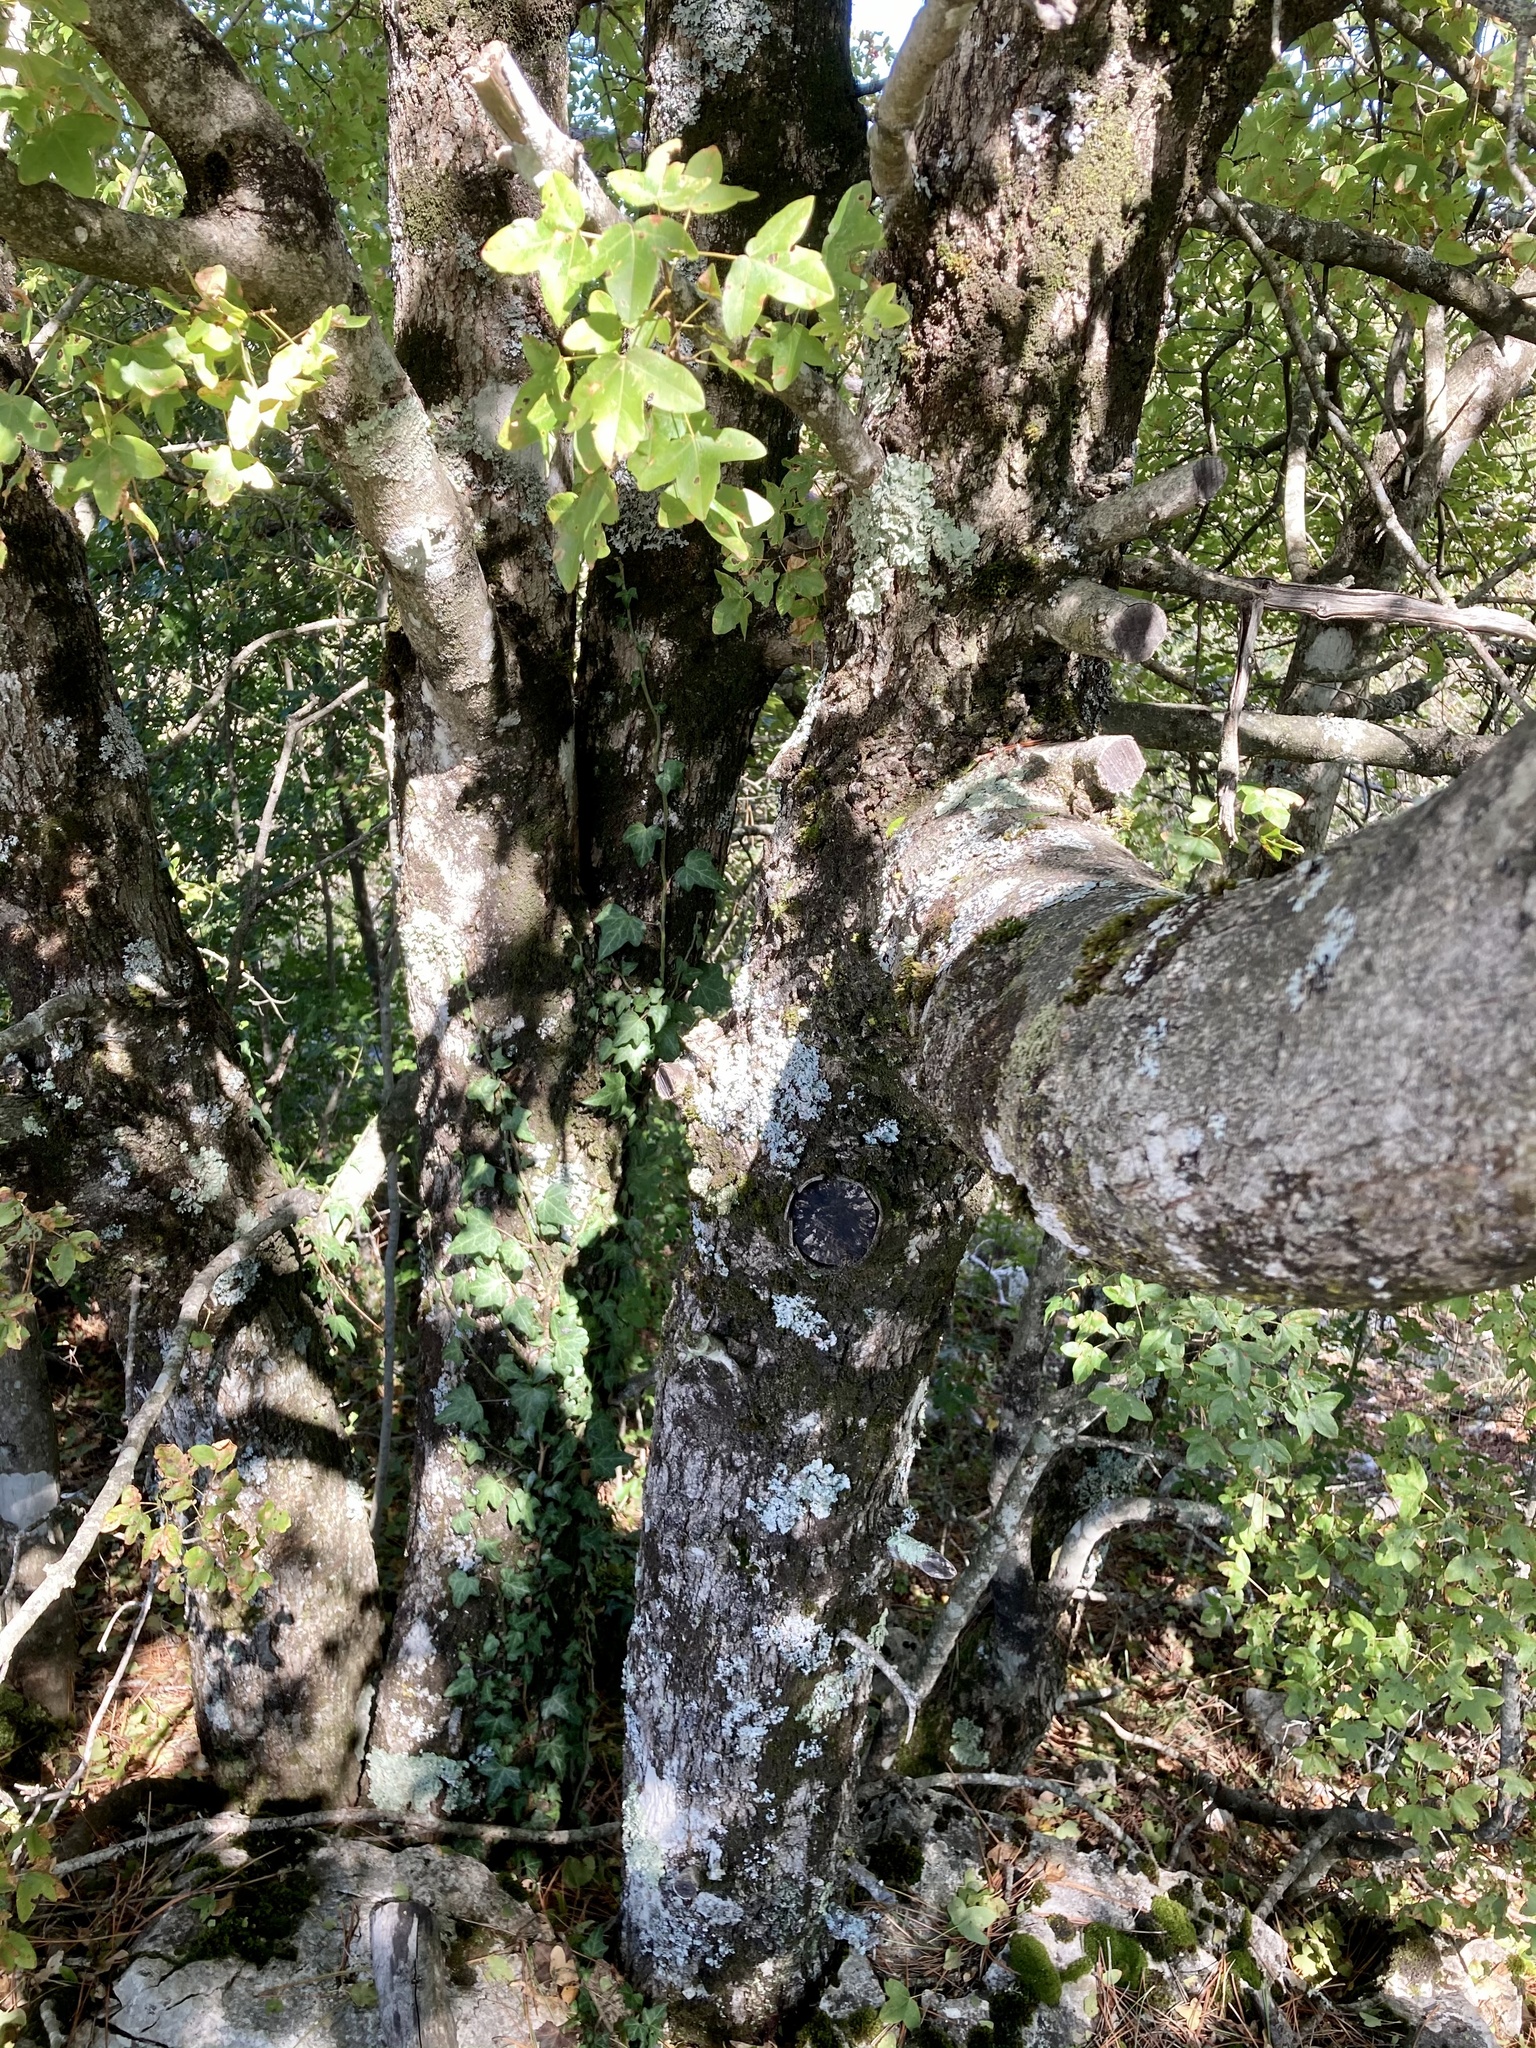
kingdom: Plantae
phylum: Tracheophyta
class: Magnoliopsida
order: Sapindales
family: Sapindaceae
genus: Acer
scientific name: Acer monspessulanum
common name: Montpellier maple
